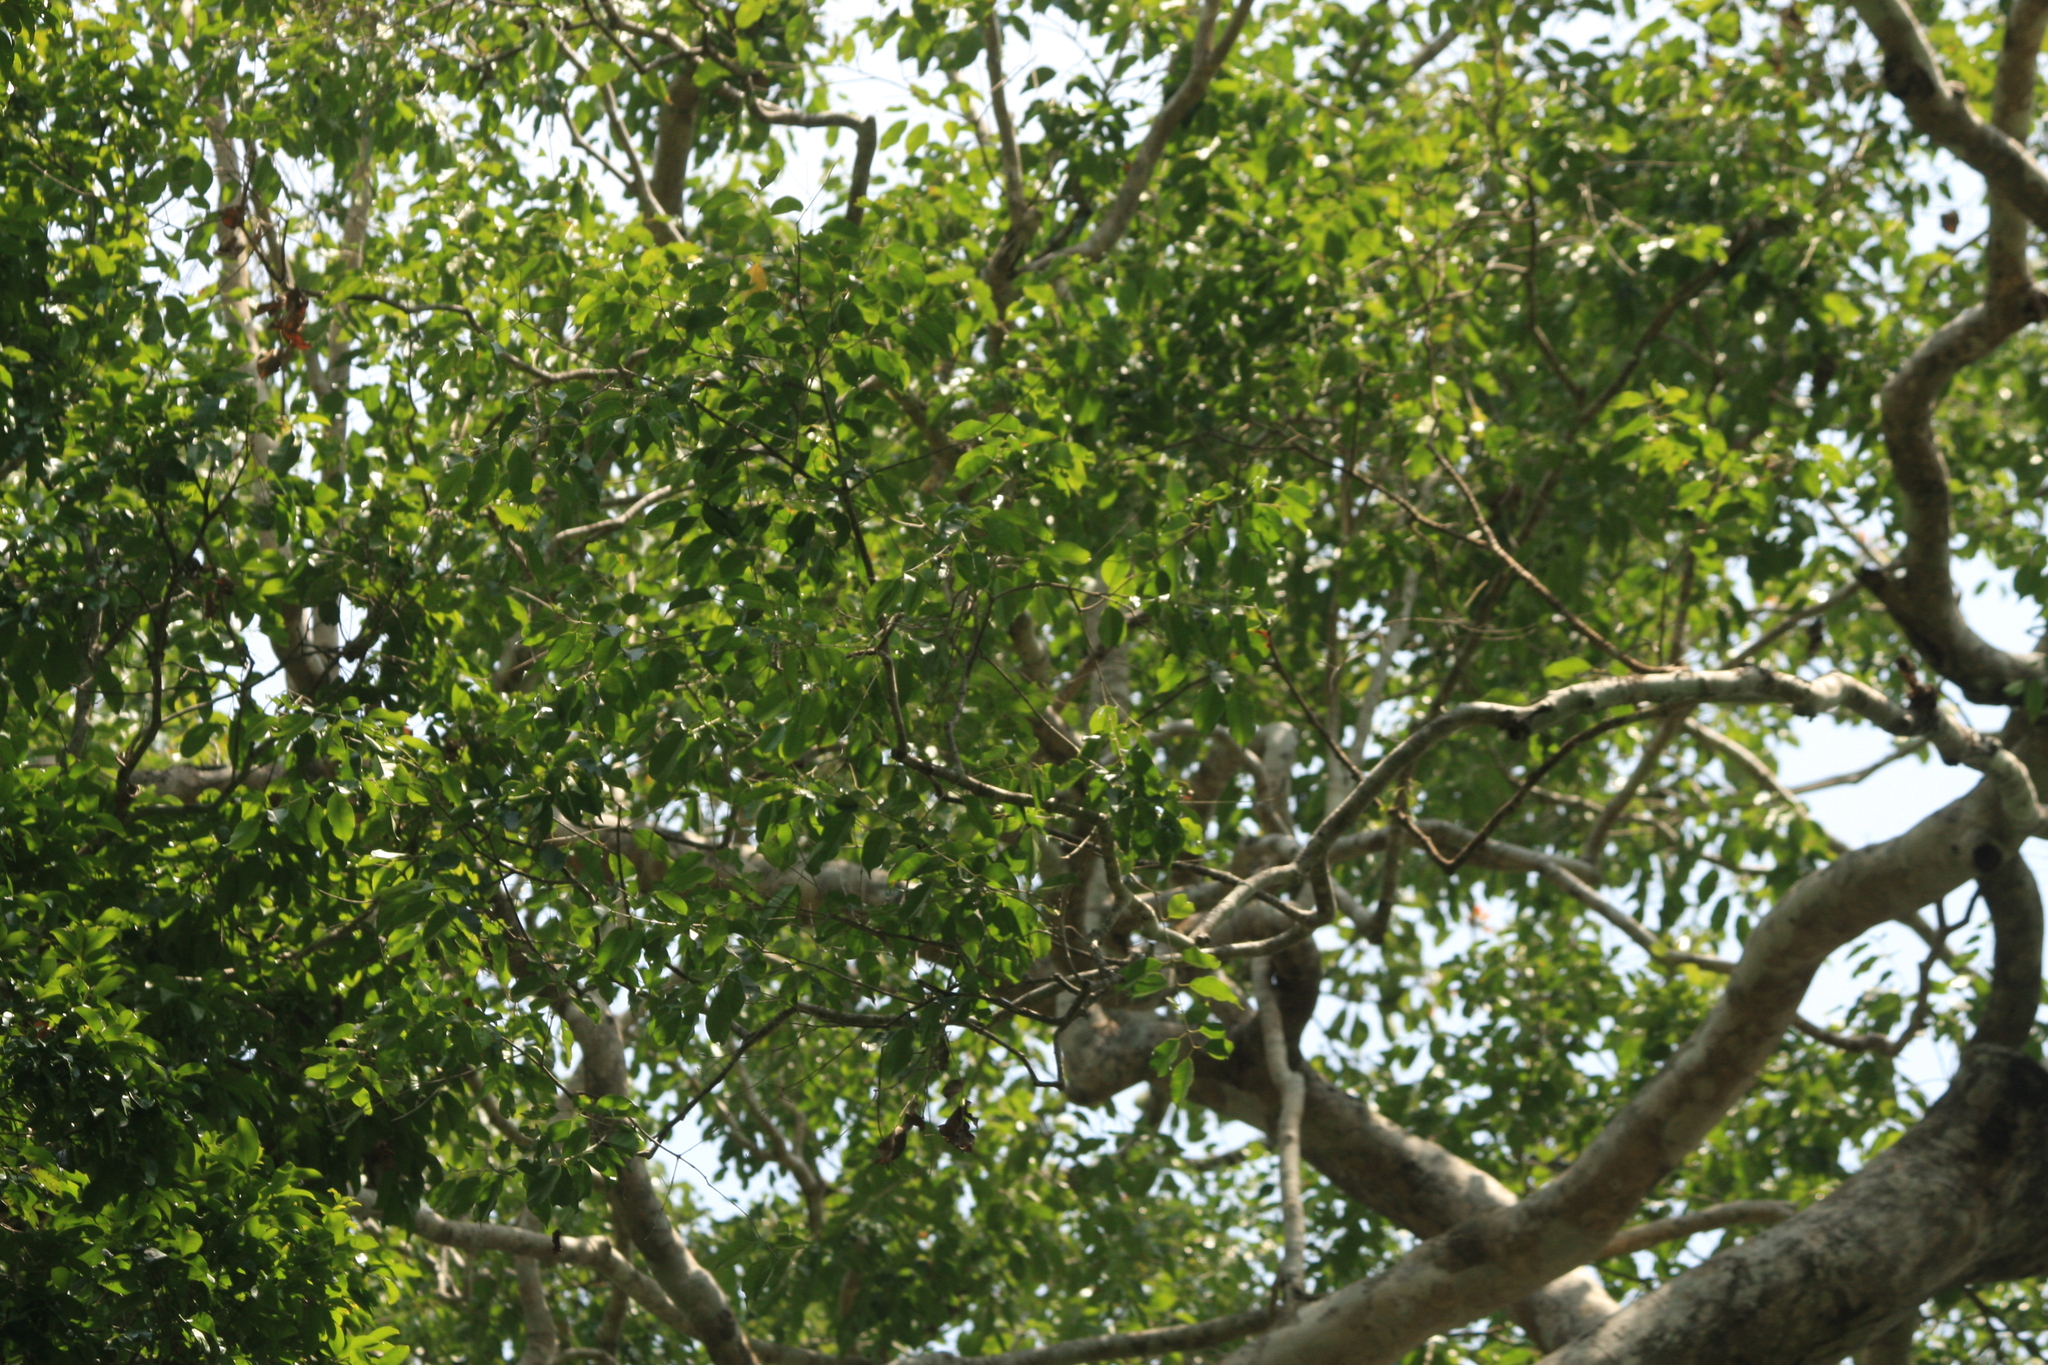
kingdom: Plantae
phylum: Tracheophyta
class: Magnoliopsida
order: Myrtales
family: Myrtaceae
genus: Syzygium
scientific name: Syzygium gardneri
